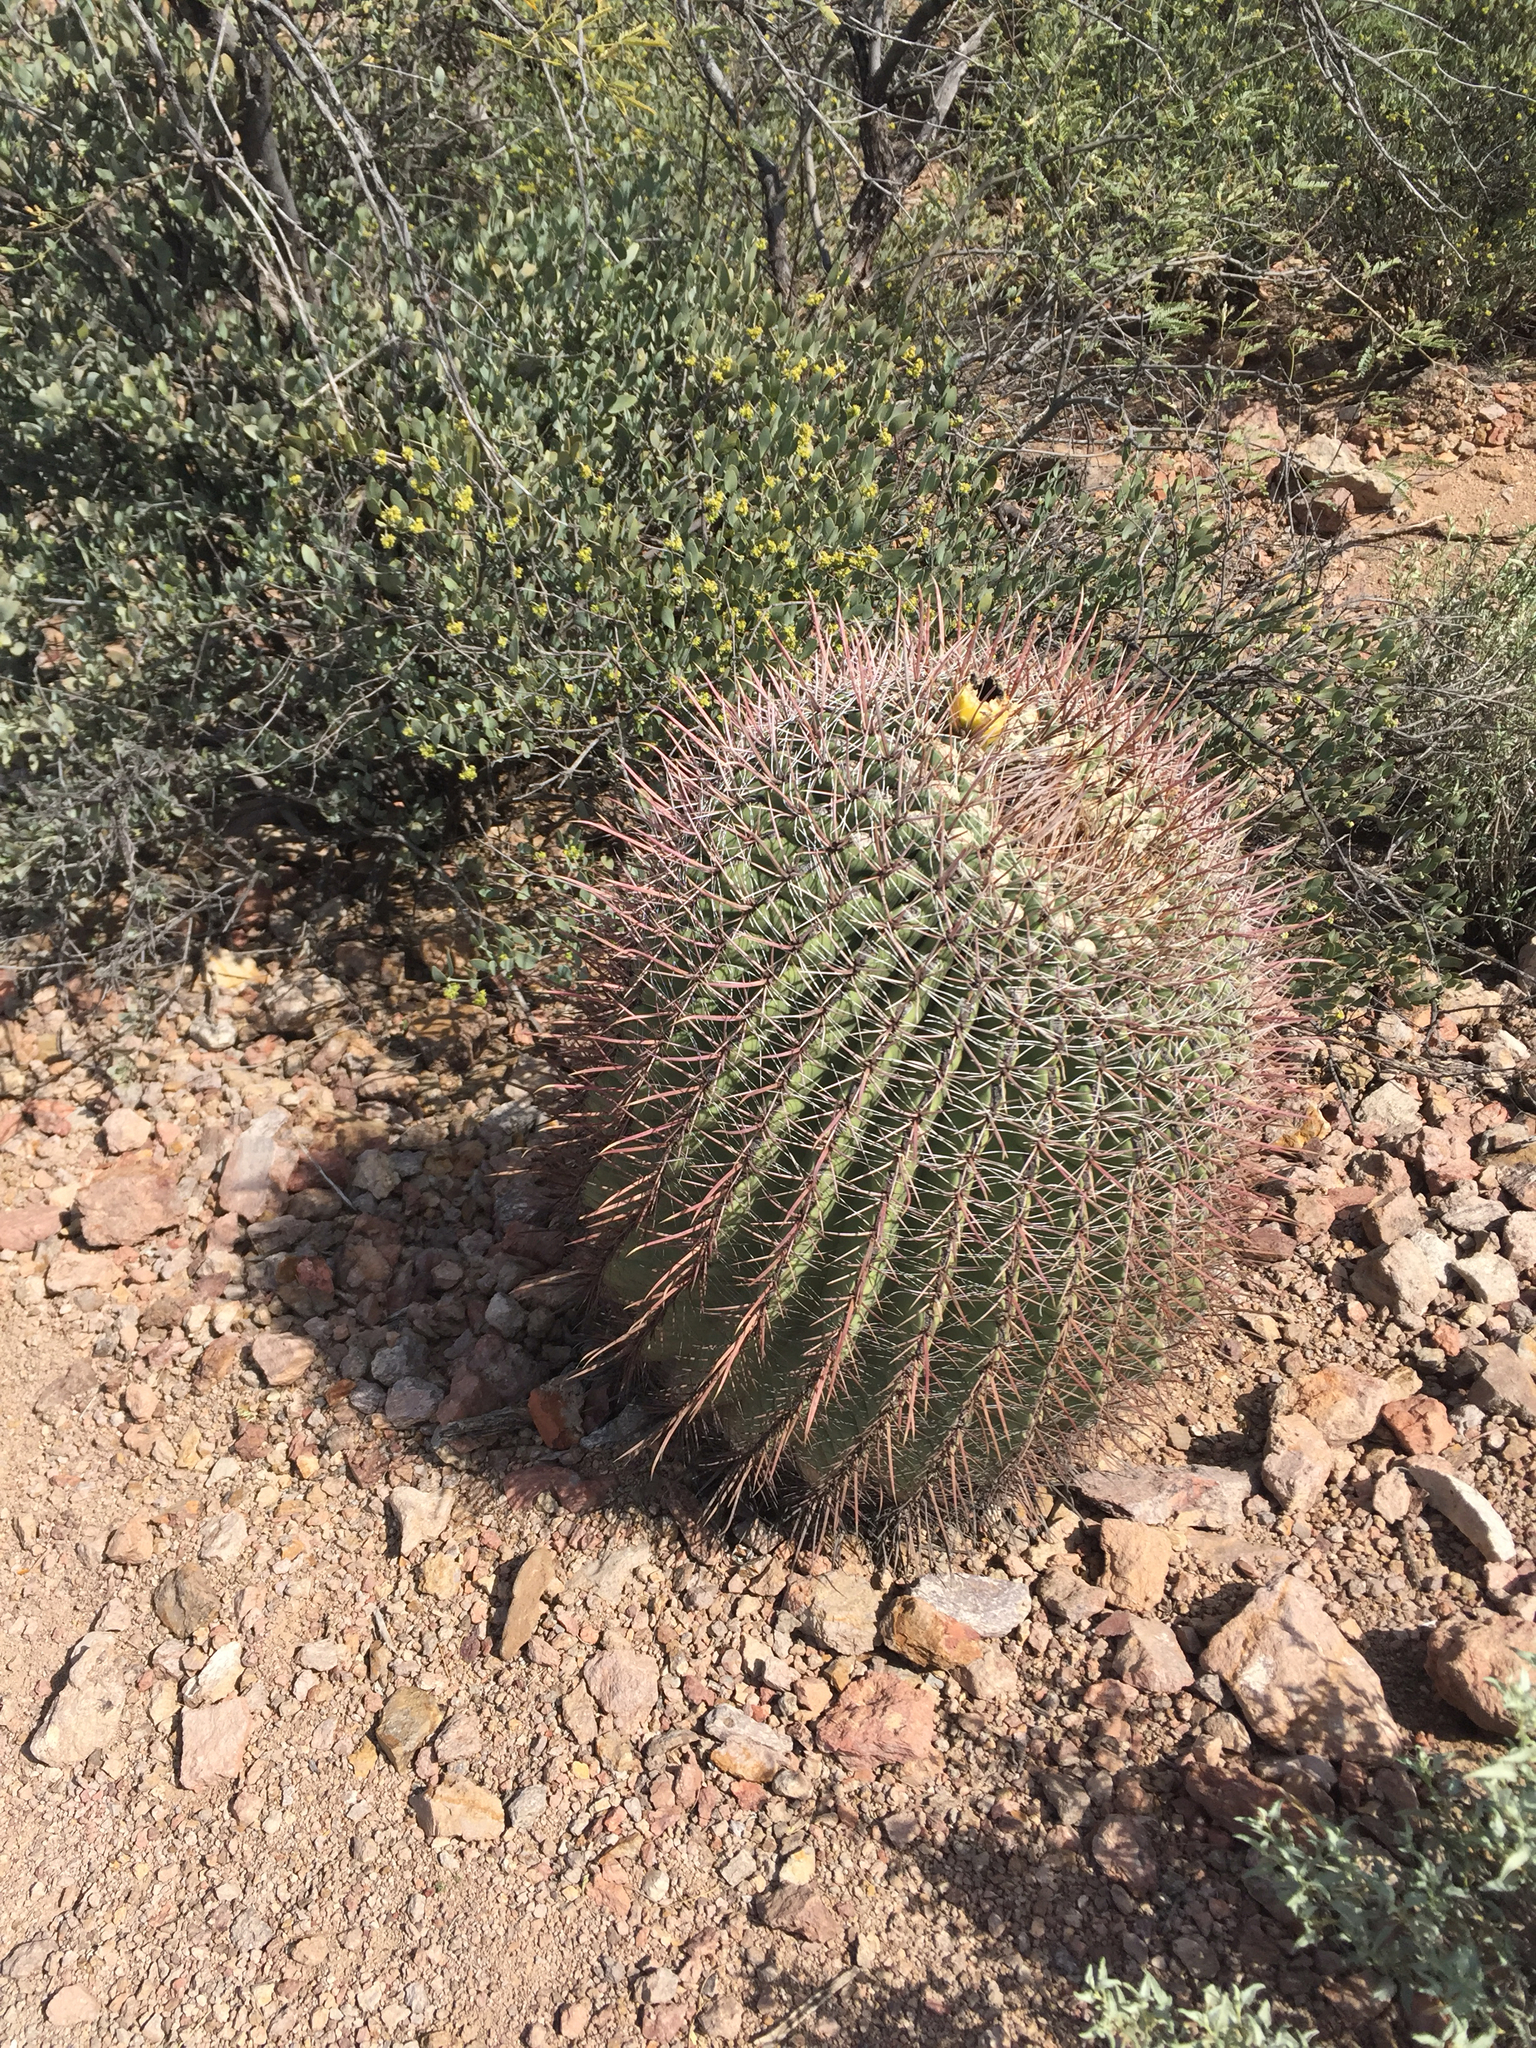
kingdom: Plantae
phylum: Tracheophyta
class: Magnoliopsida
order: Caryophyllales
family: Cactaceae
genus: Ferocactus
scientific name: Ferocactus wislizeni
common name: Candy barrel cactus
